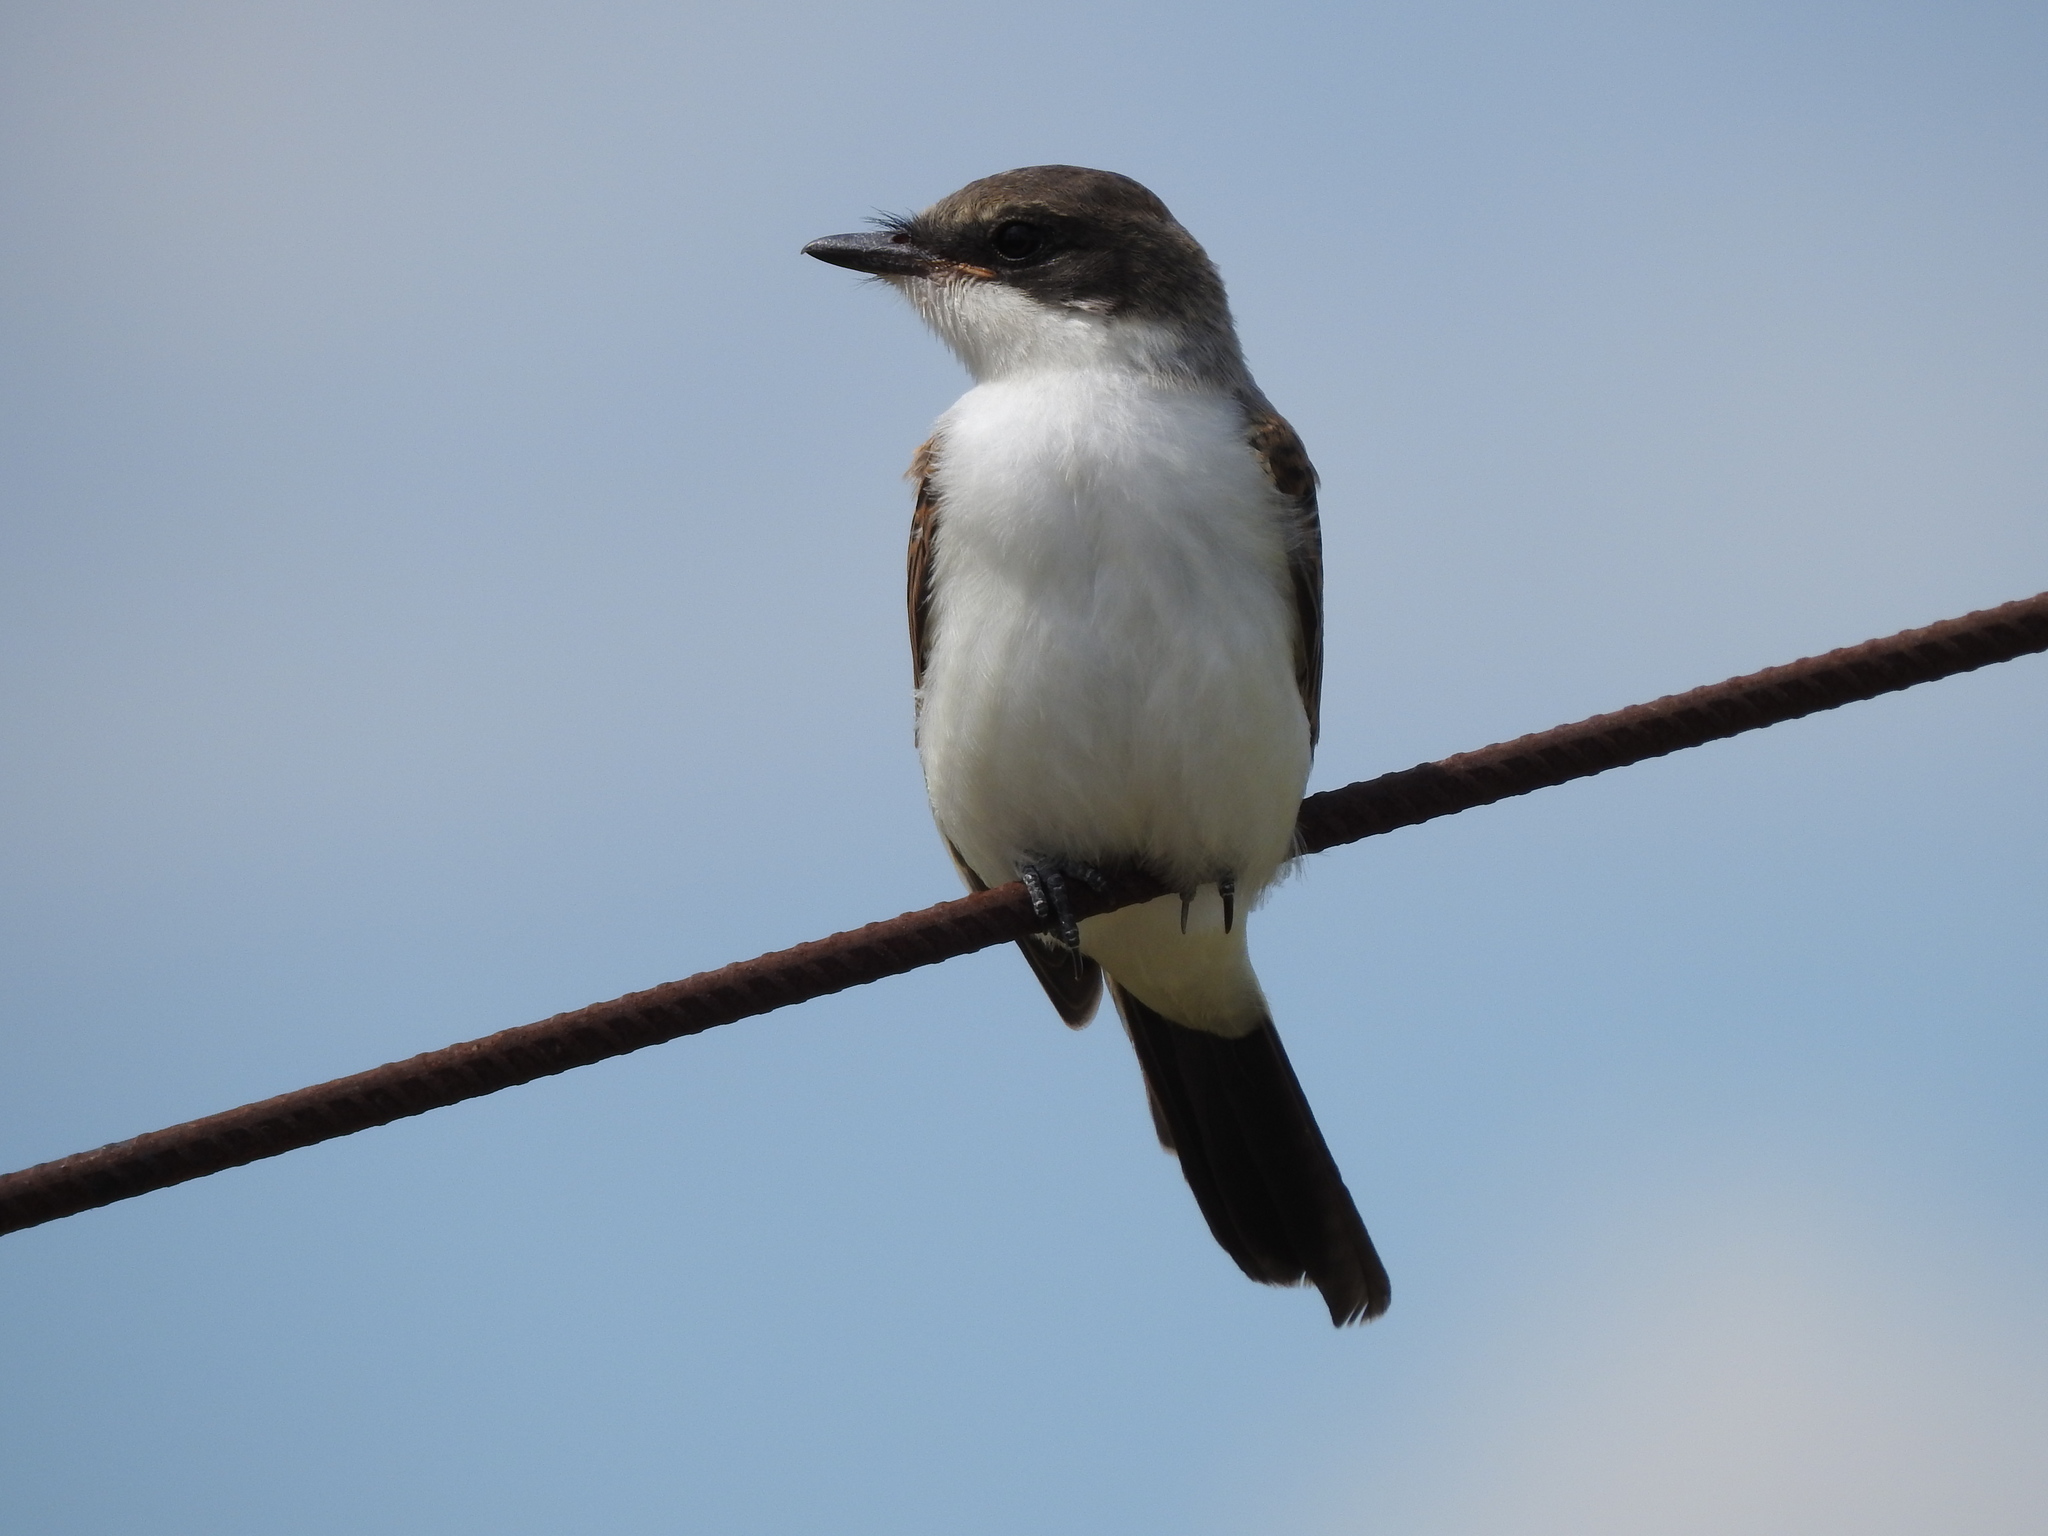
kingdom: Animalia
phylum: Chordata
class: Aves
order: Passeriformes
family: Tyrannidae
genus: Tyrannus
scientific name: Tyrannus savana
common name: Fork-tailed flycatcher
